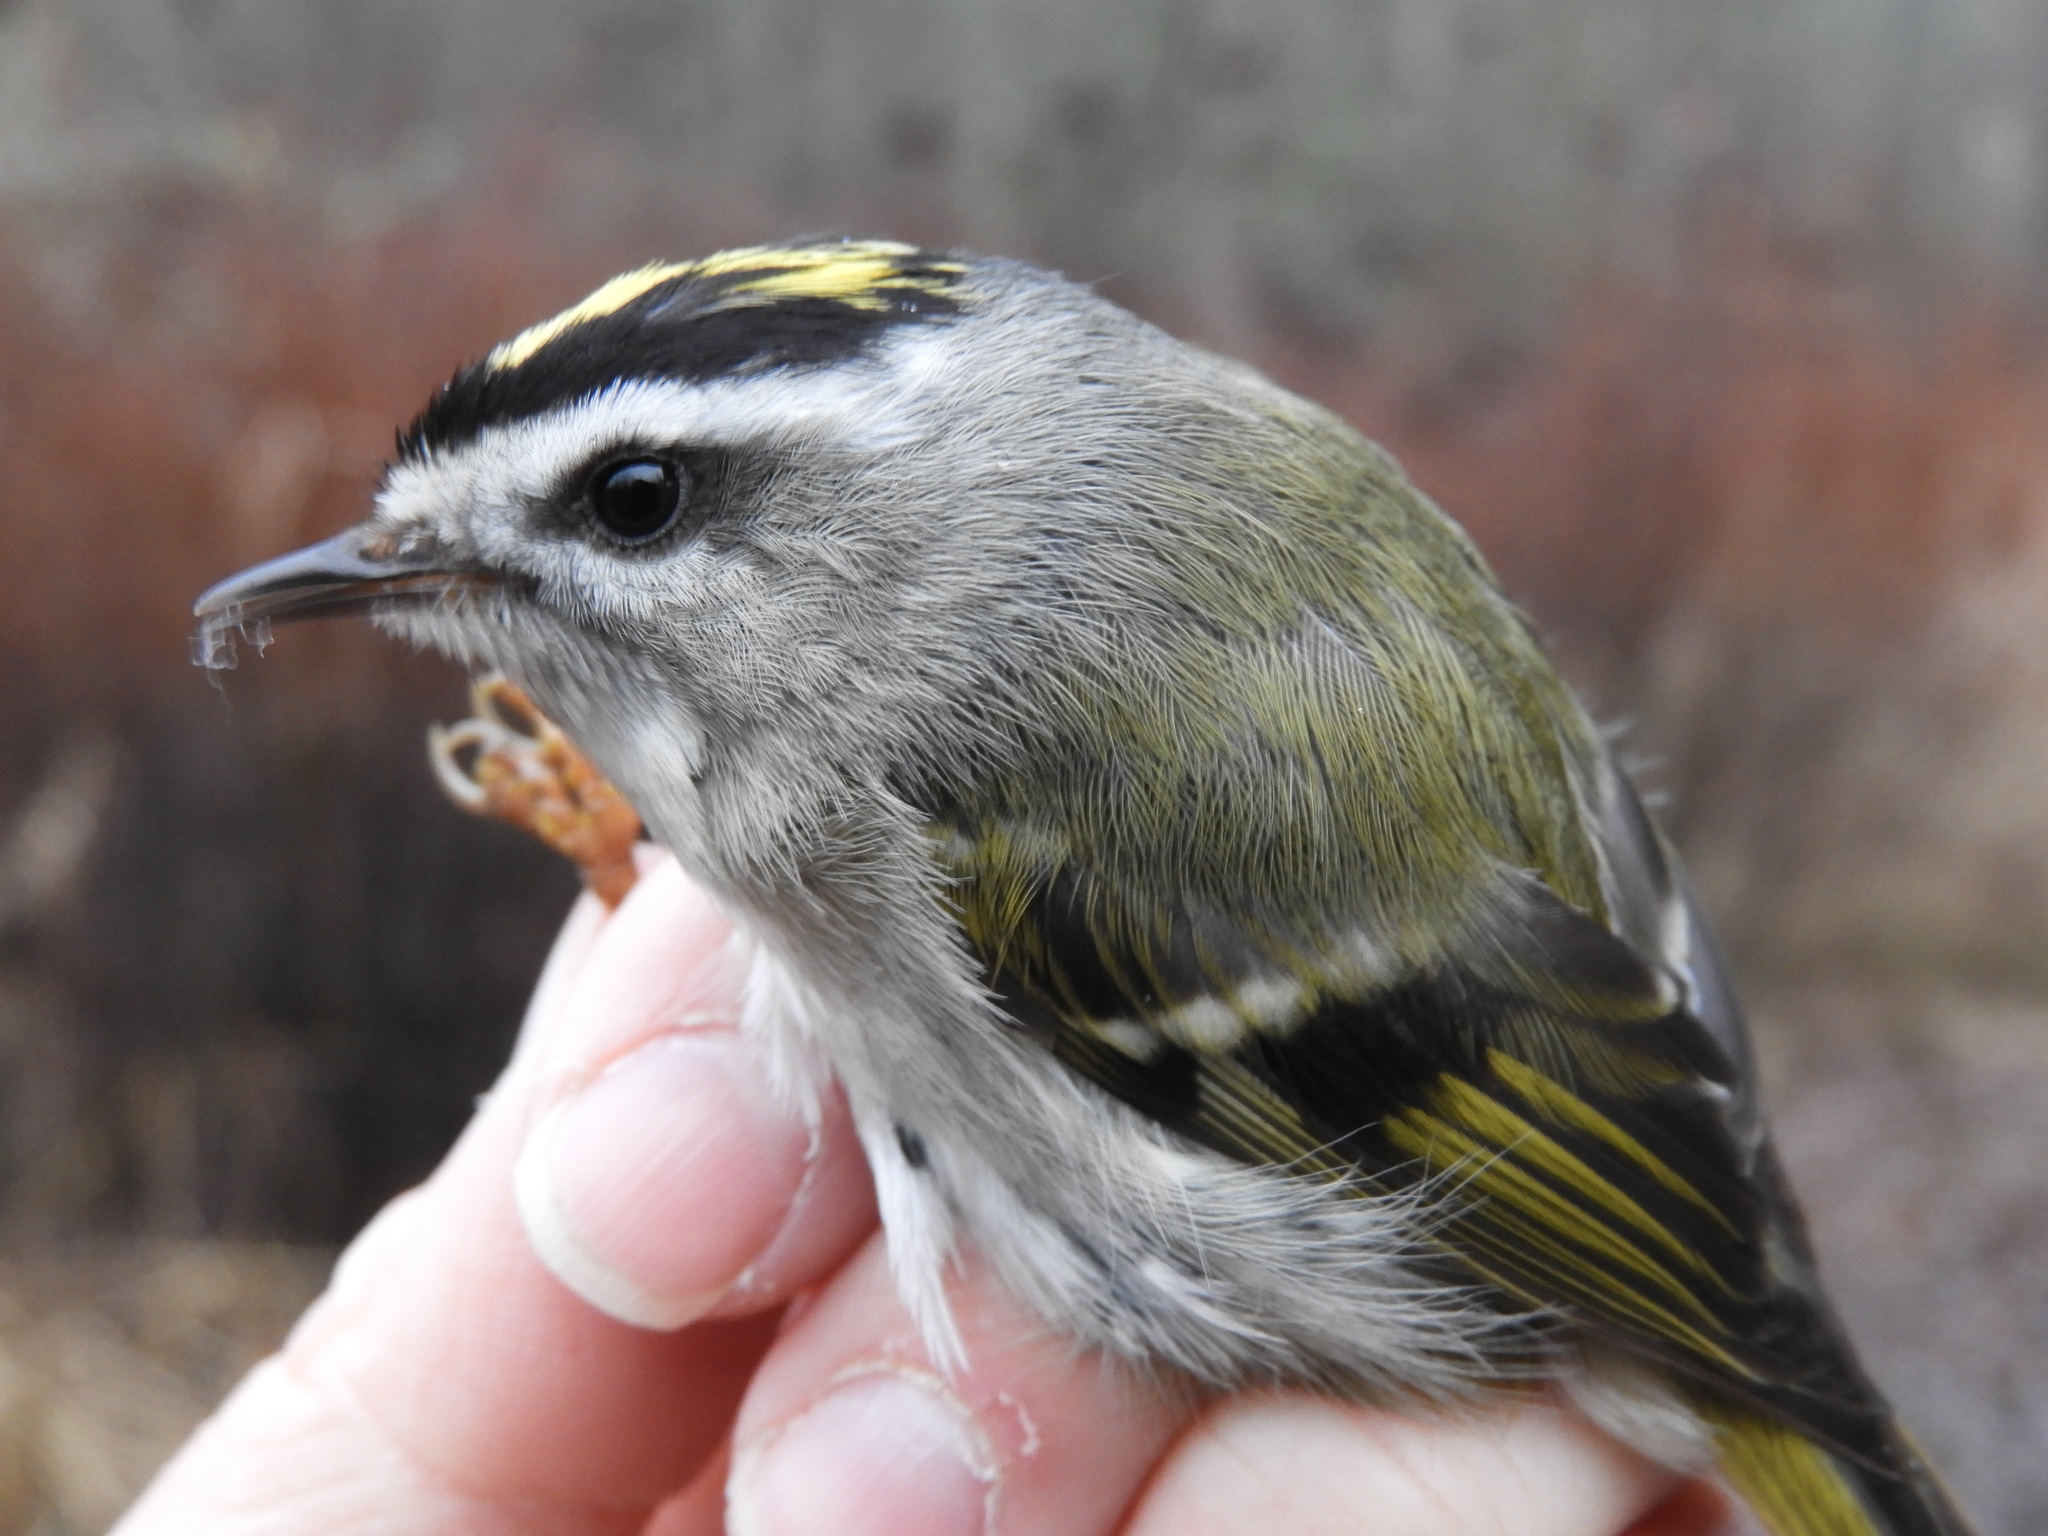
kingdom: Animalia
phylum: Chordata
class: Aves
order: Passeriformes
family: Regulidae
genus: Regulus
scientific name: Regulus satrapa
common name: Golden-crowned kinglet
